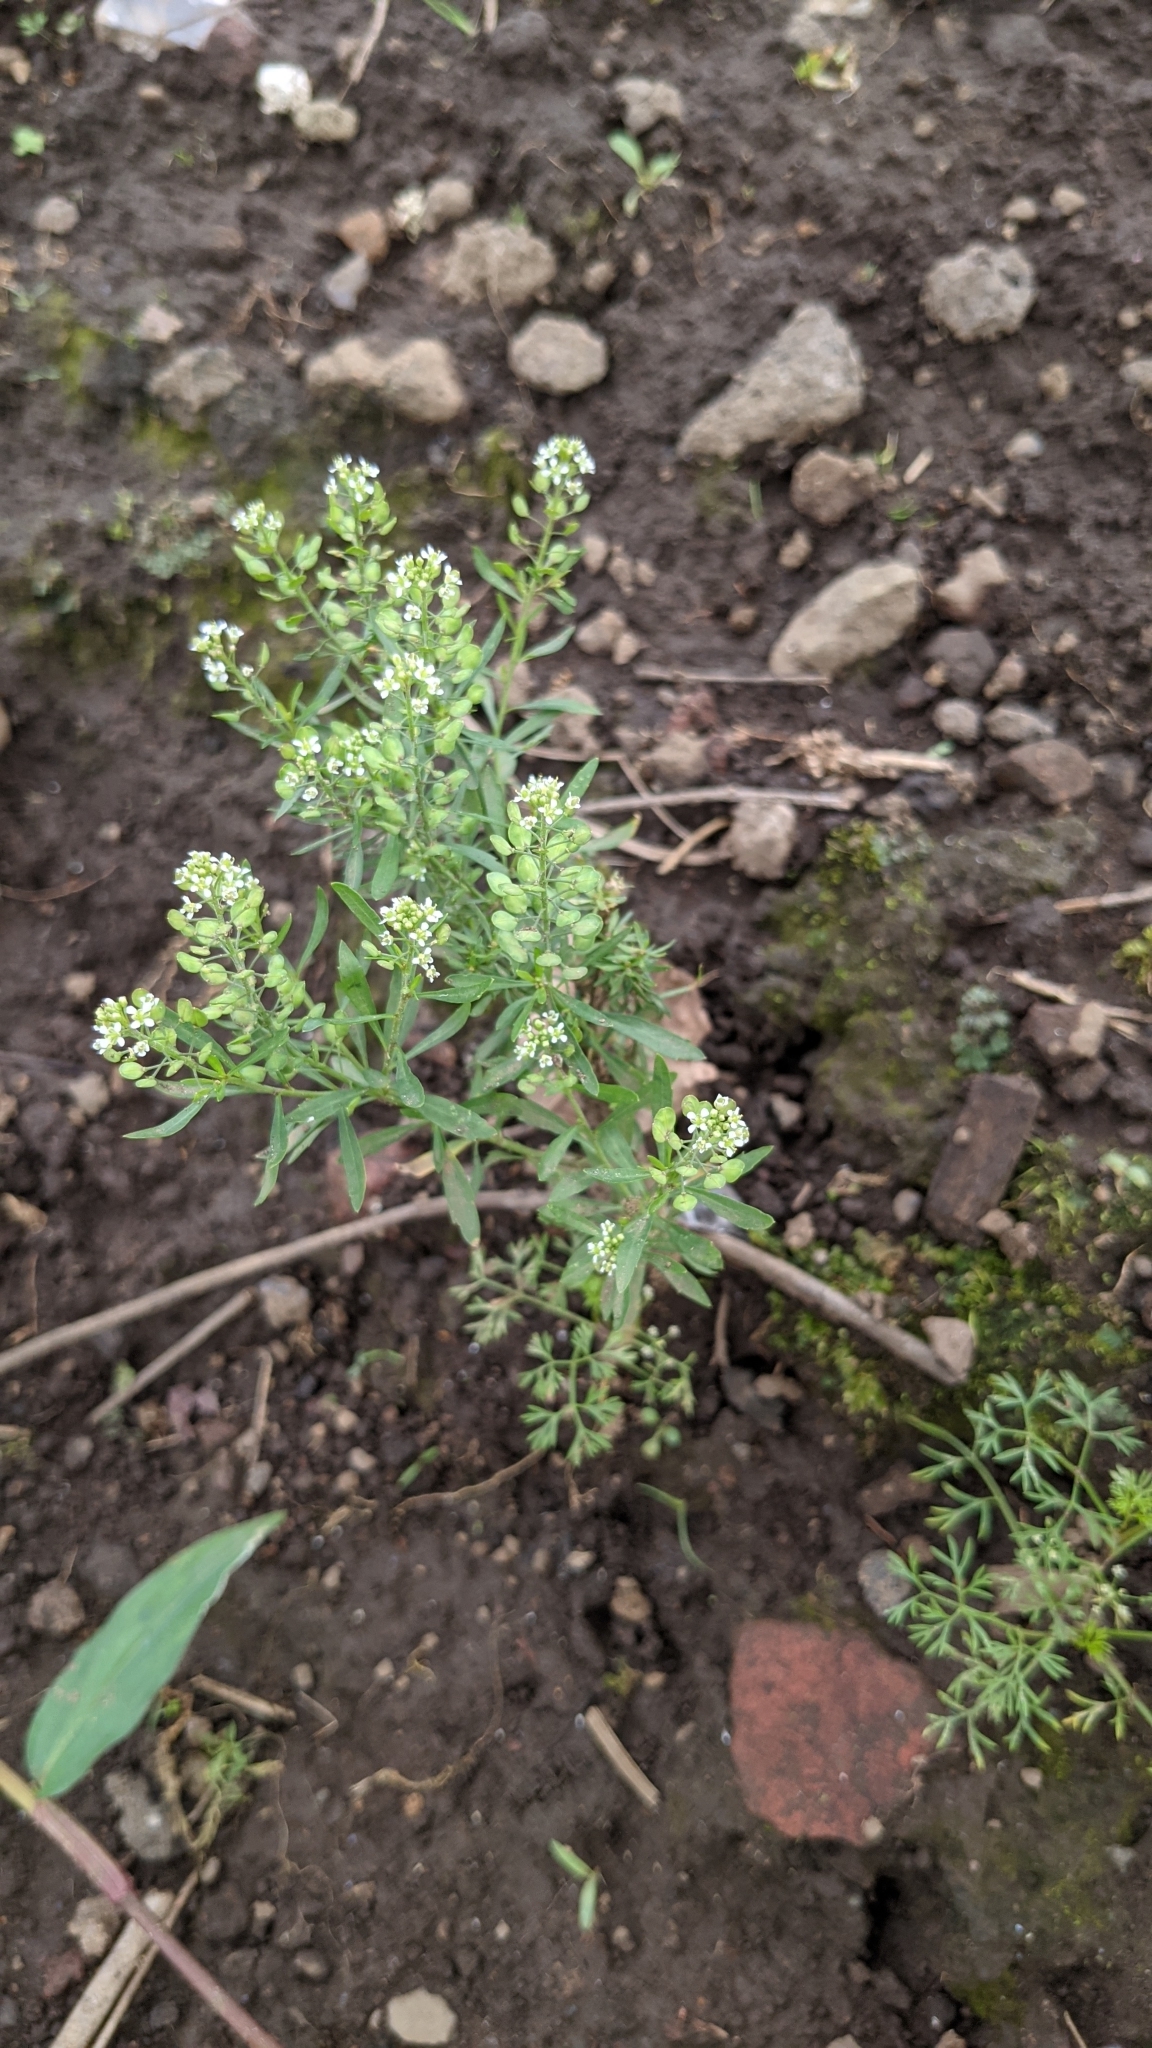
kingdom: Plantae
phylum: Tracheophyta
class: Magnoliopsida
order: Brassicales
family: Brassicaceae
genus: Lepidium
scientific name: Lepidium virginicum
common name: Least pepperwort
